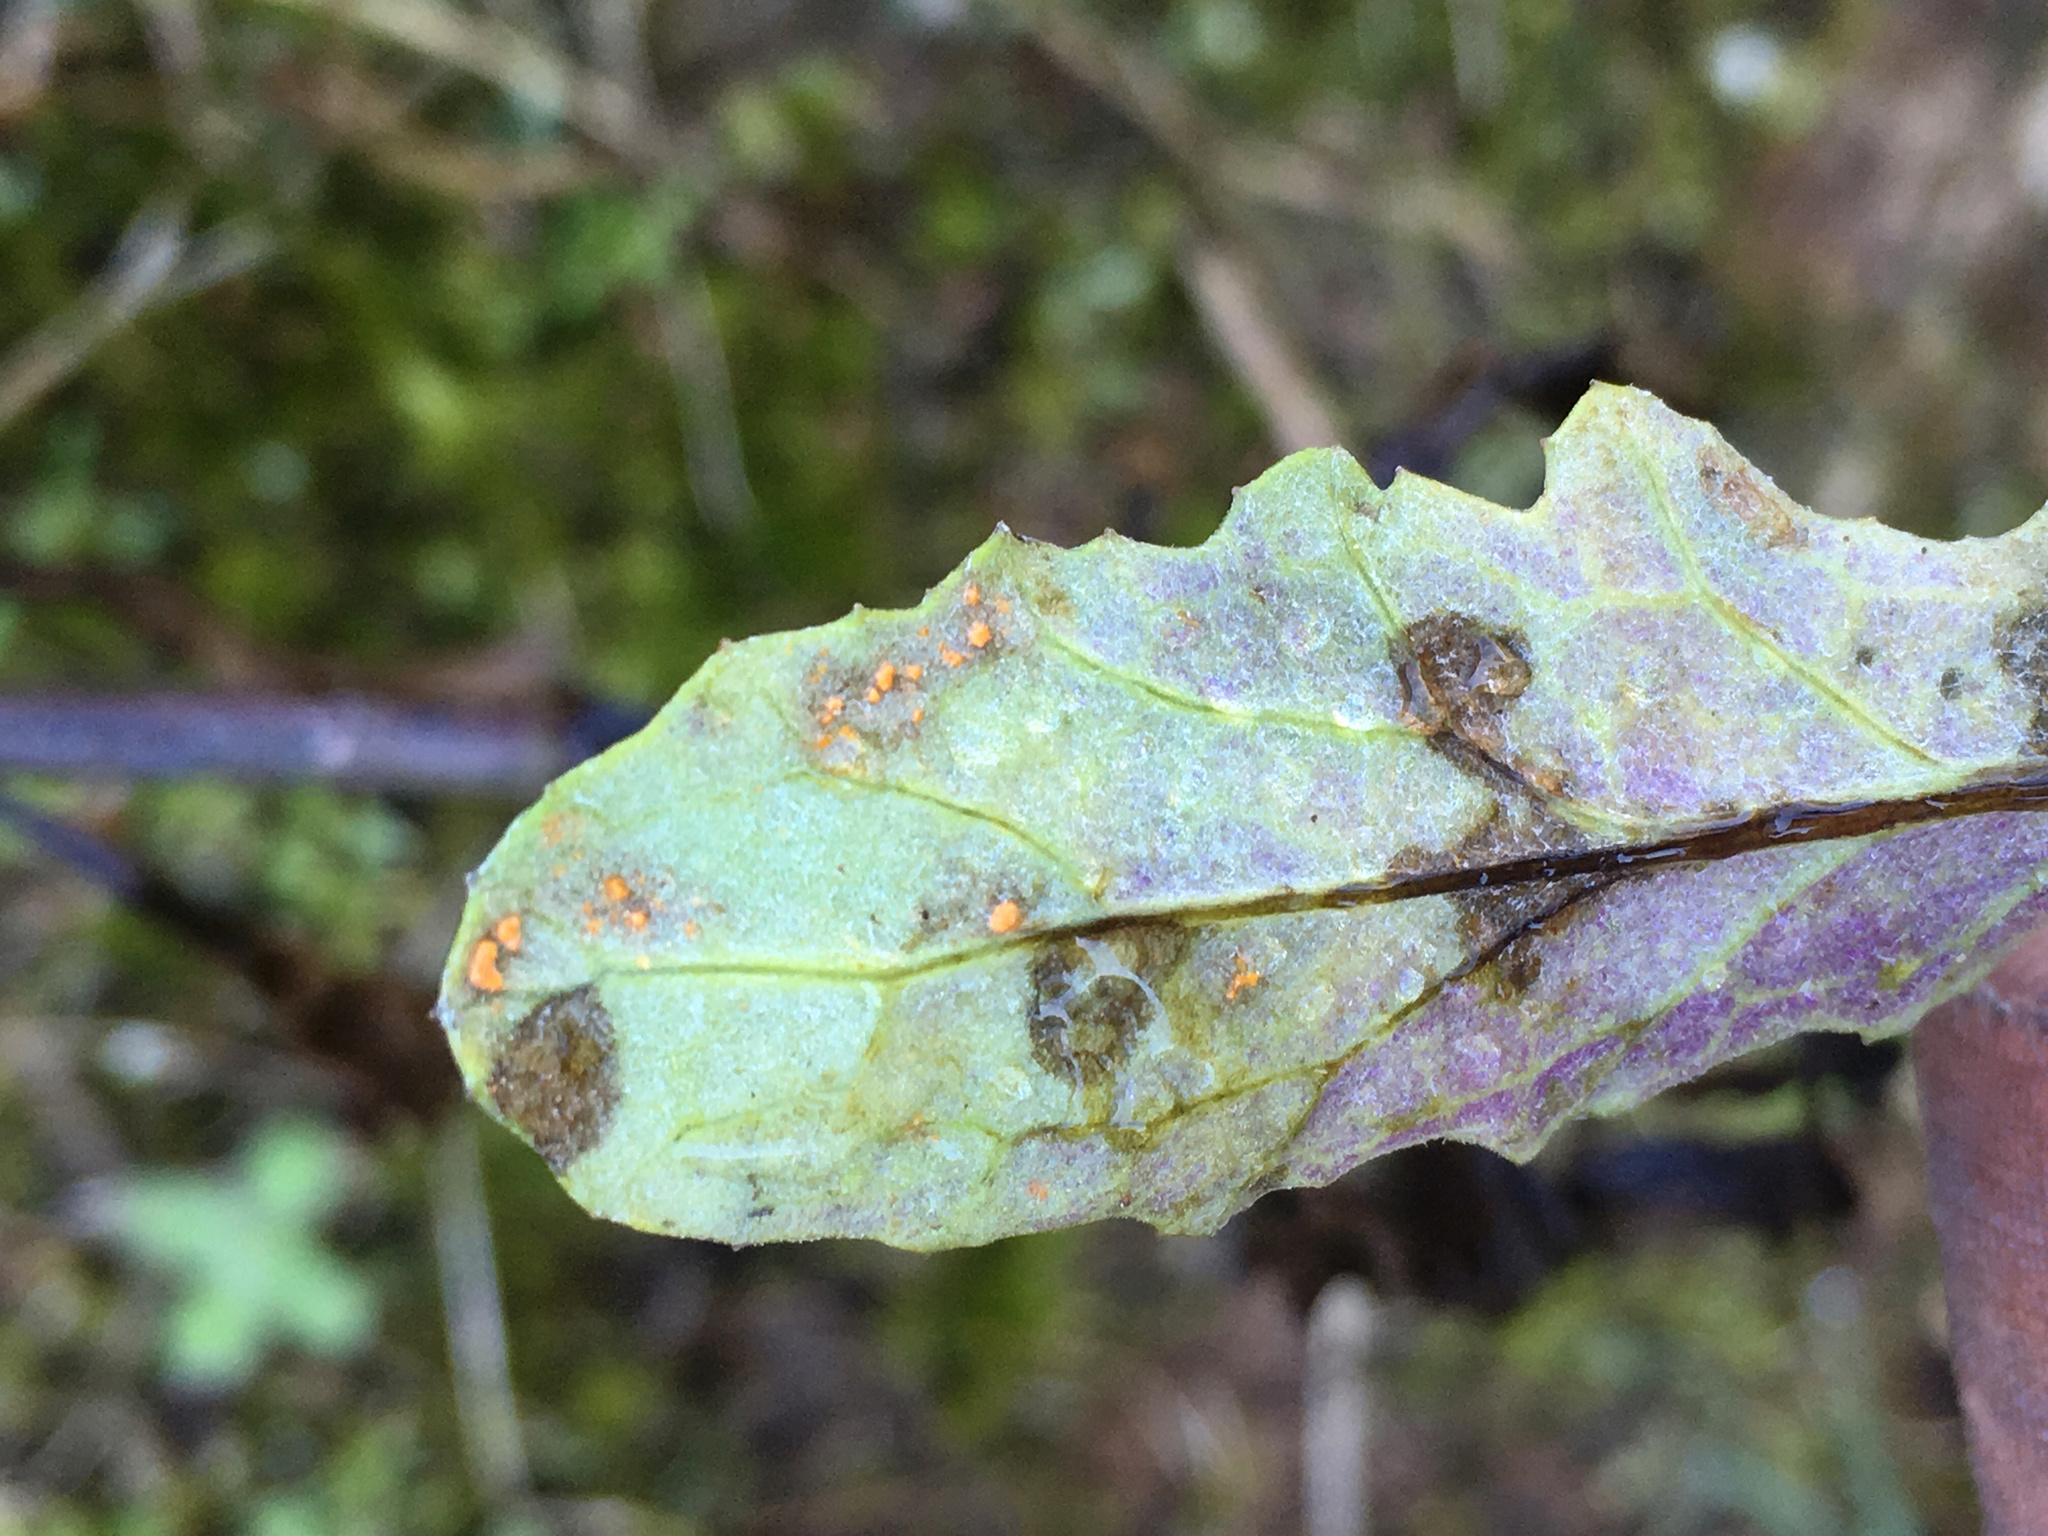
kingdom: Fungi
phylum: Basidiomycota
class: Pucciniomycetes
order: Pucciniales
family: Coleosporiaceae
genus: Coleosporium
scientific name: Coleosporium tussilaginis
